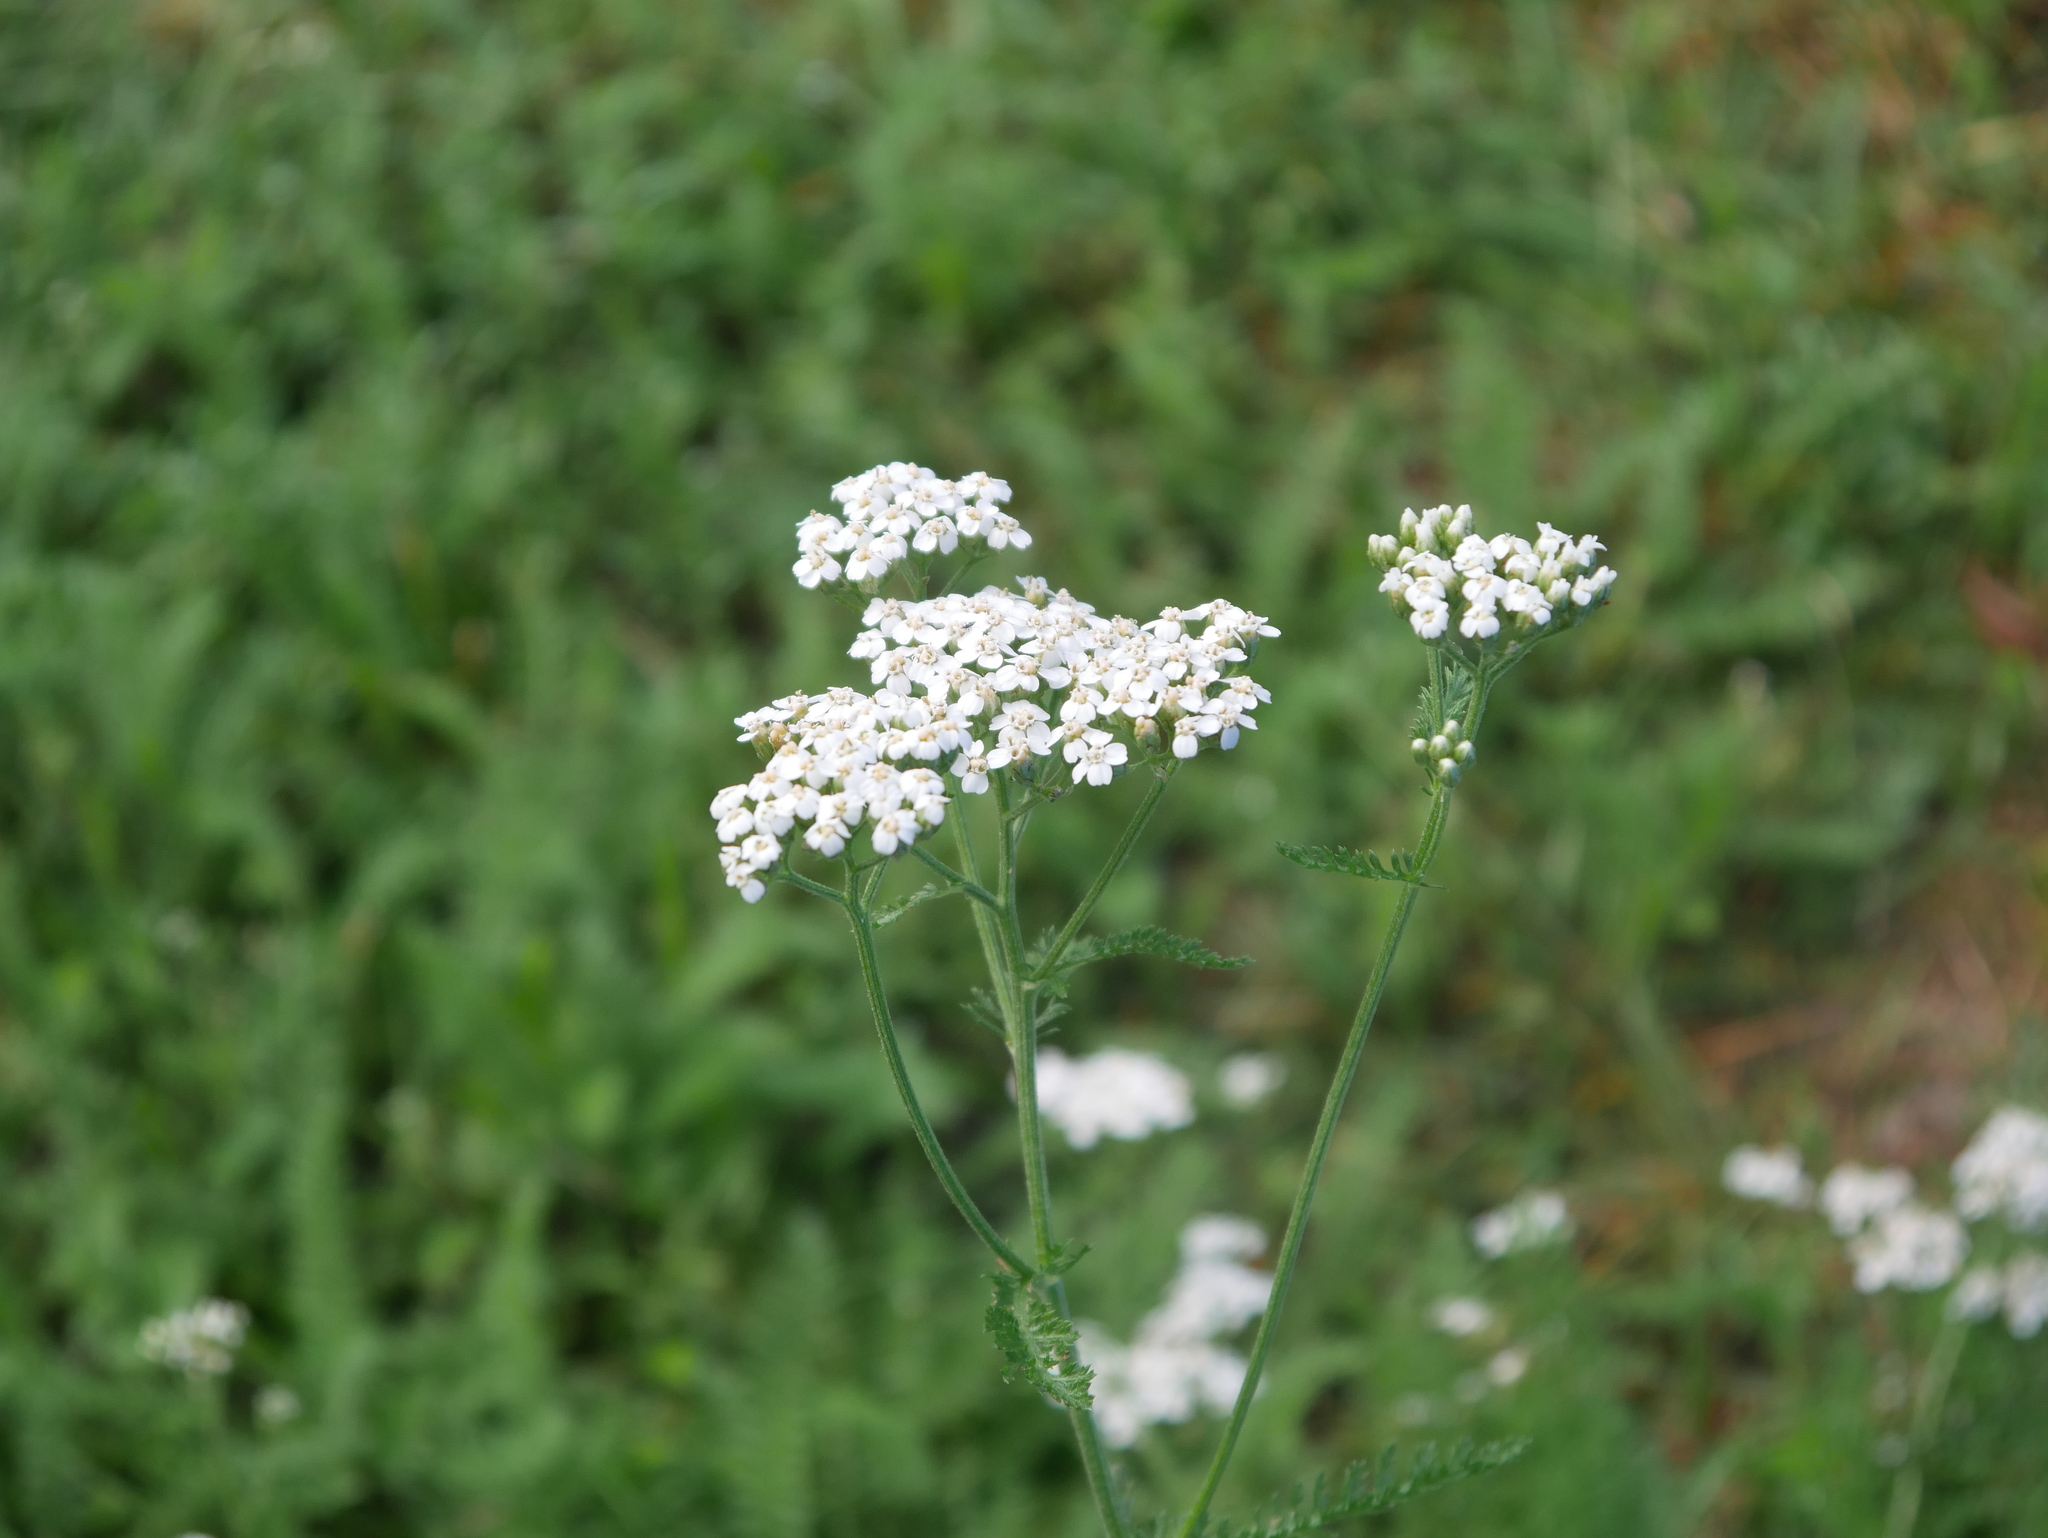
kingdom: Plantae
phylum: Tracheophyta
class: Magnoliopsida
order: Asterales
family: Asteraceae
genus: Achillea
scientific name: Achillea millefolium
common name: Yarrow
